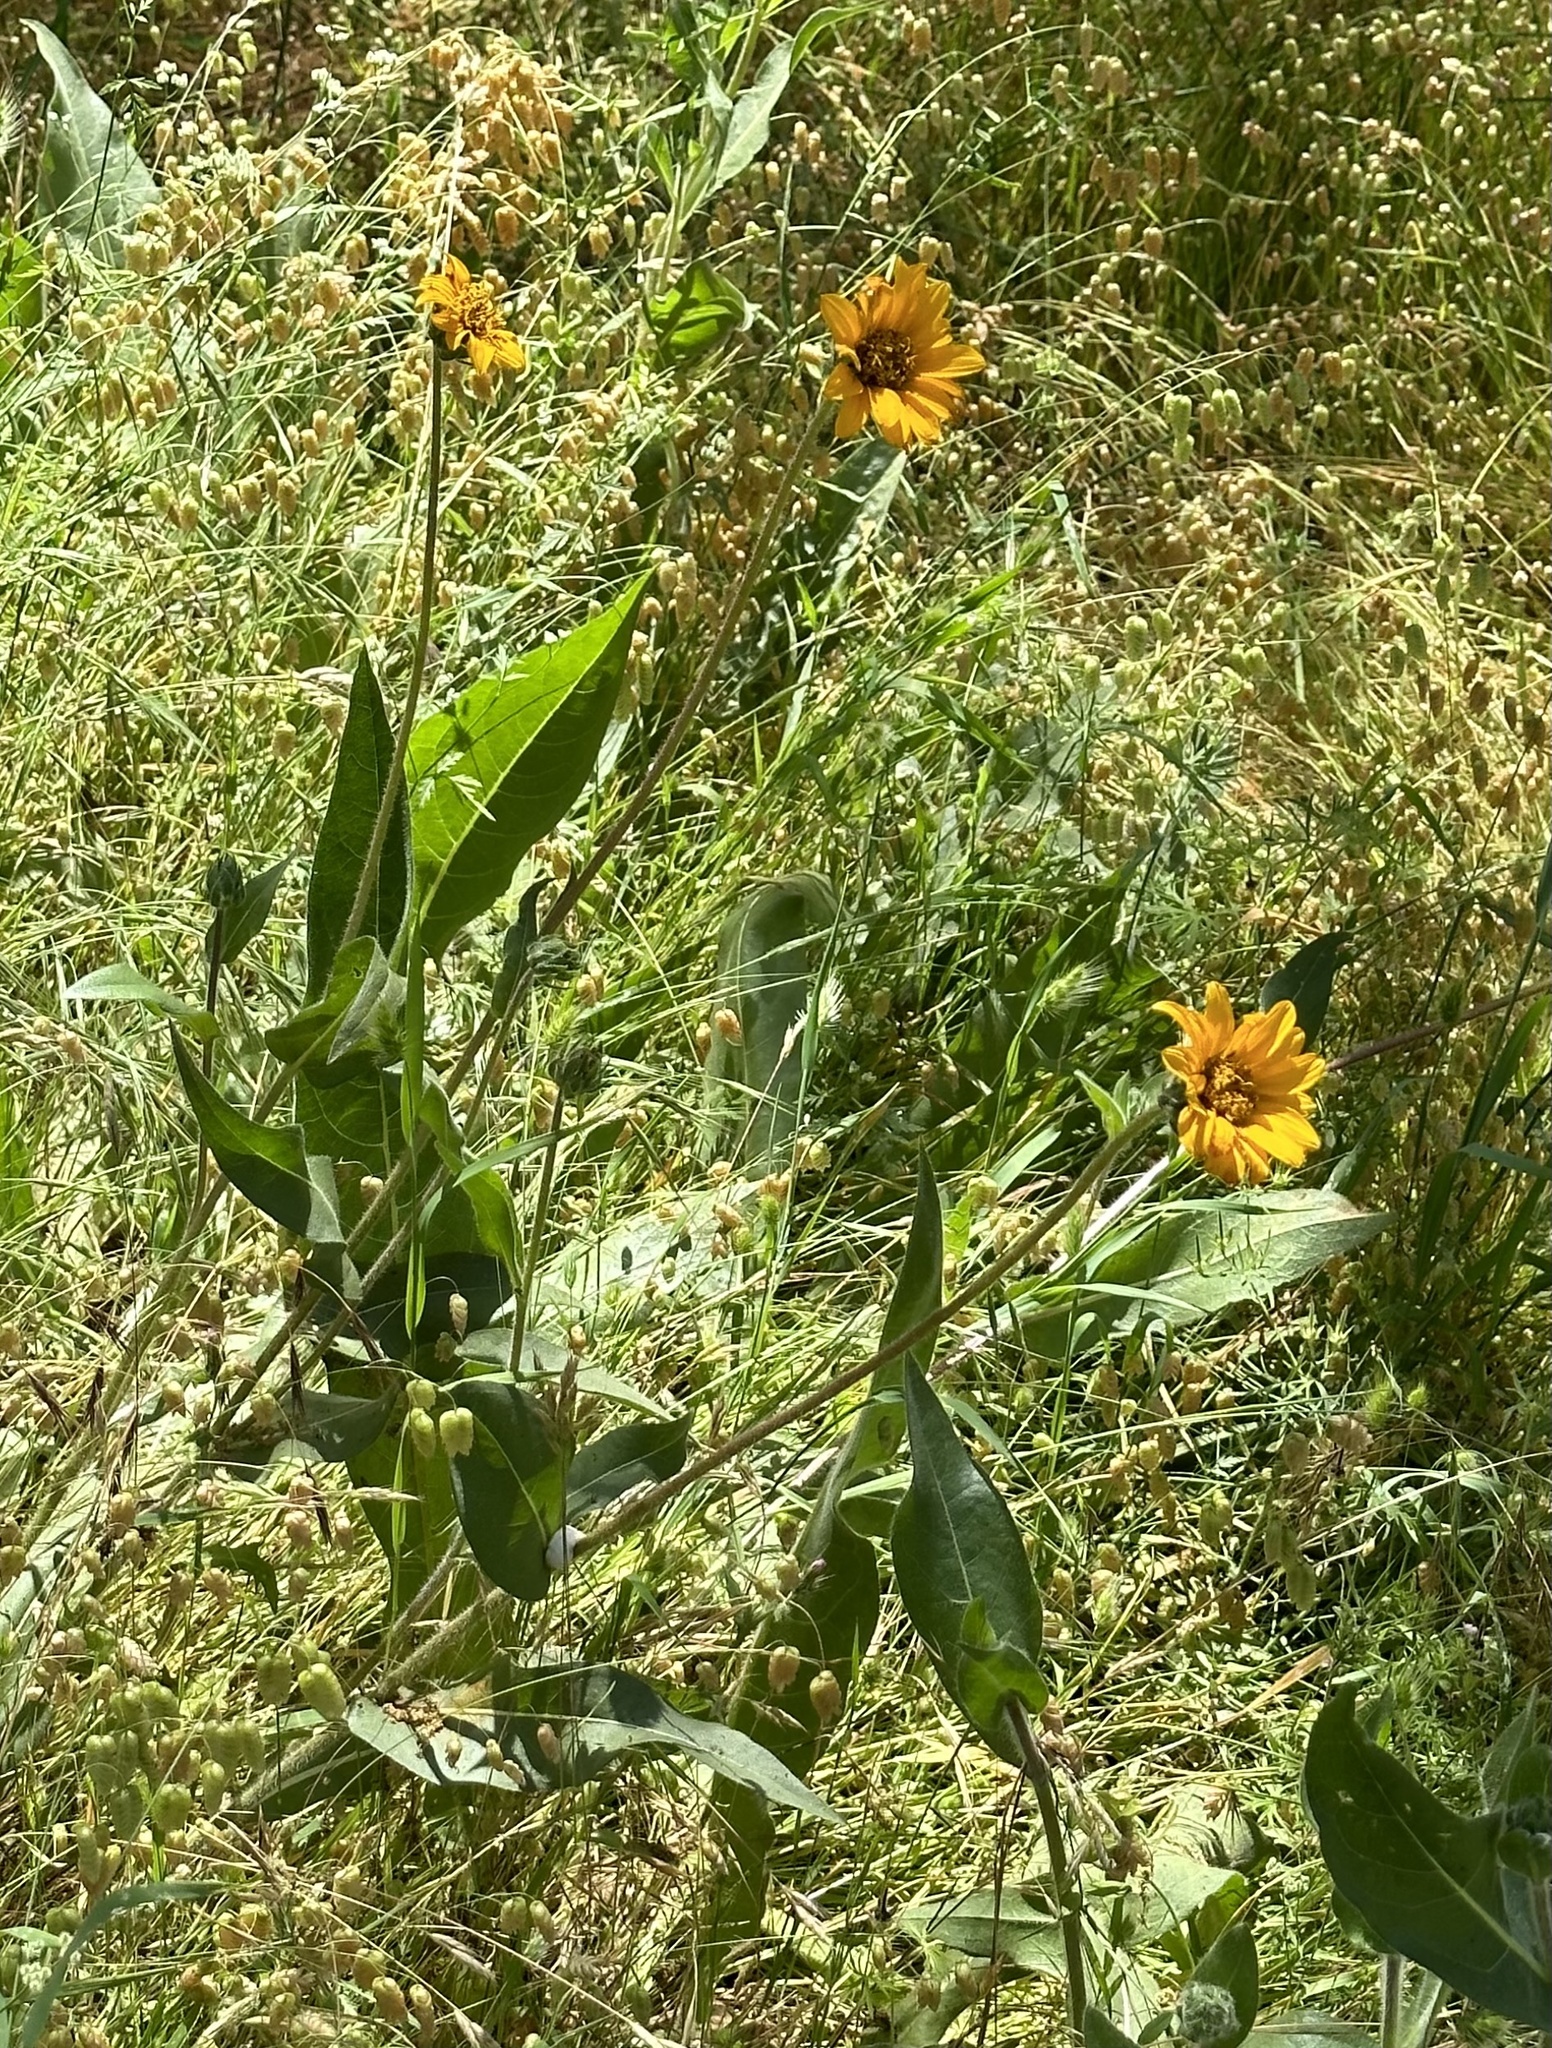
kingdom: Plantae
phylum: Tracheophyta
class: Magnoliopsida
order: Asterales
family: Asteraceae
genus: Wyethia
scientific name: Wyethia angustifolia
